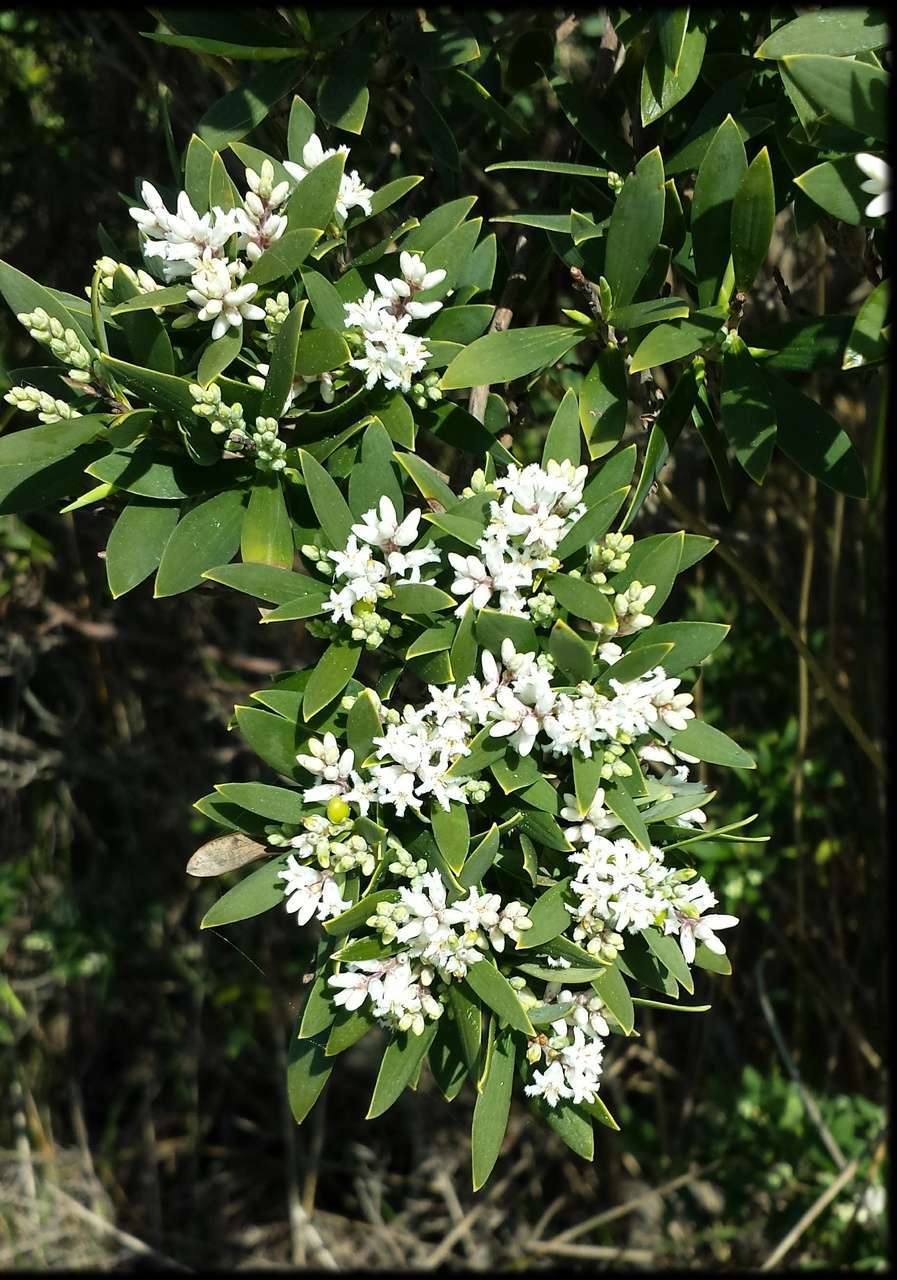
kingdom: Plantae
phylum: Tracheophyta
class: Magnoliopsida
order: Ericales
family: Ericaceae
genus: Leptecophylla
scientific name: Leptecophylla parvifolia
